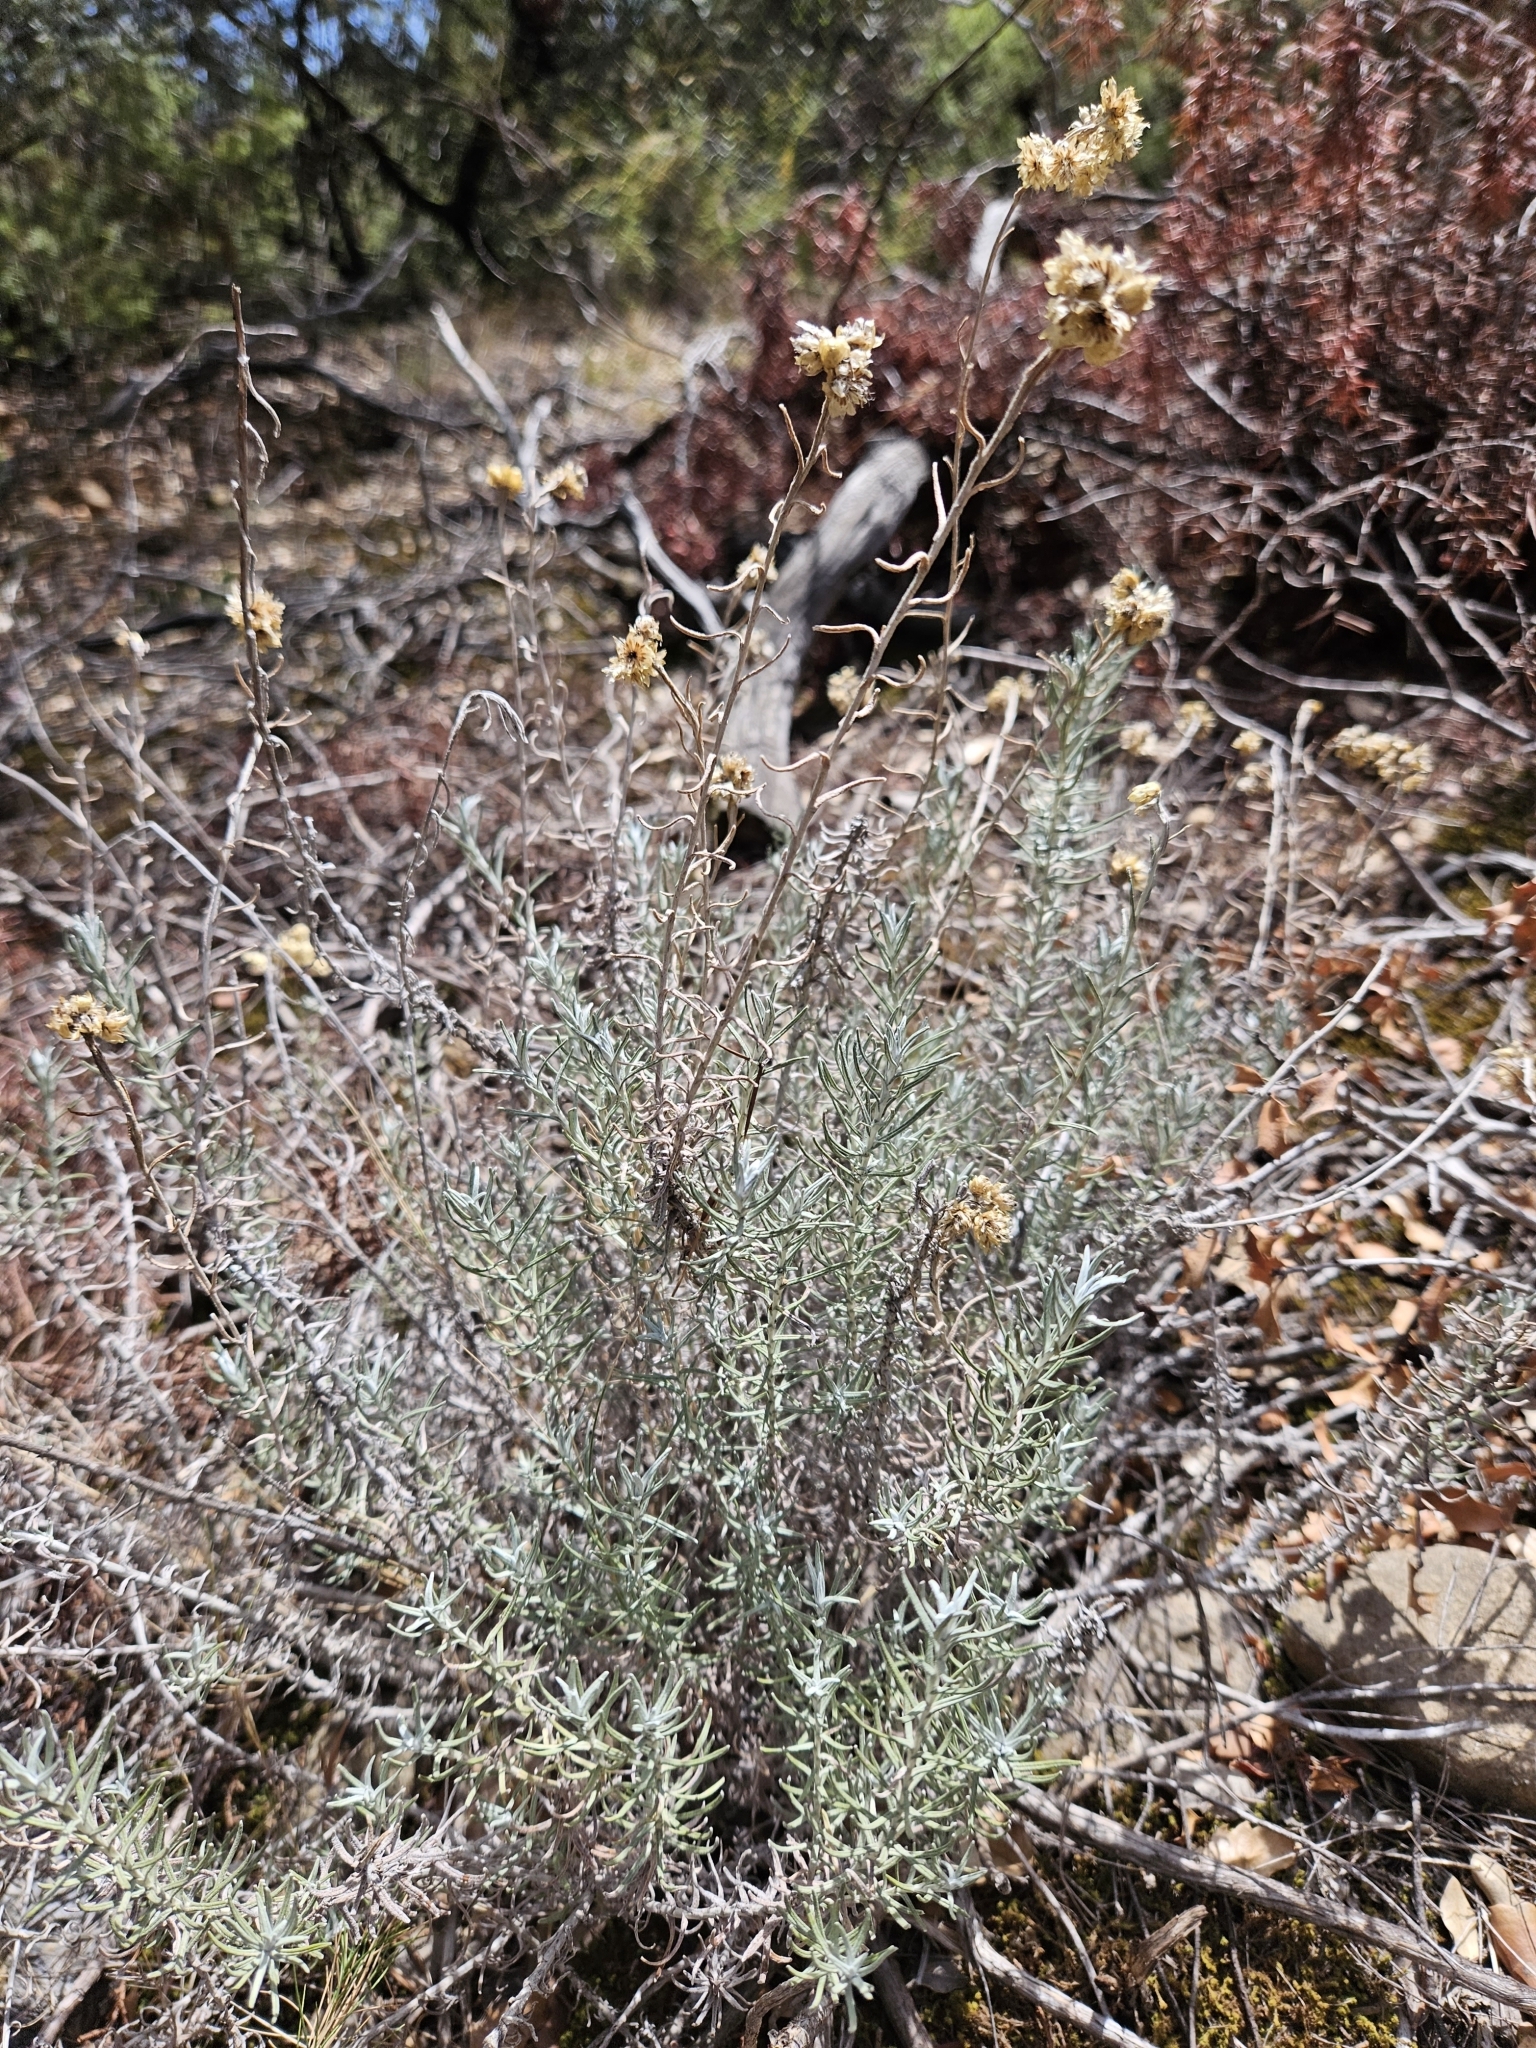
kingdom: Plantae
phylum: Tracheophyta
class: Magnoliopsida
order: Asterales
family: Asteraceae
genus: Helichrysum
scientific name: Helichrysum stoechas
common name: Goldilocks
